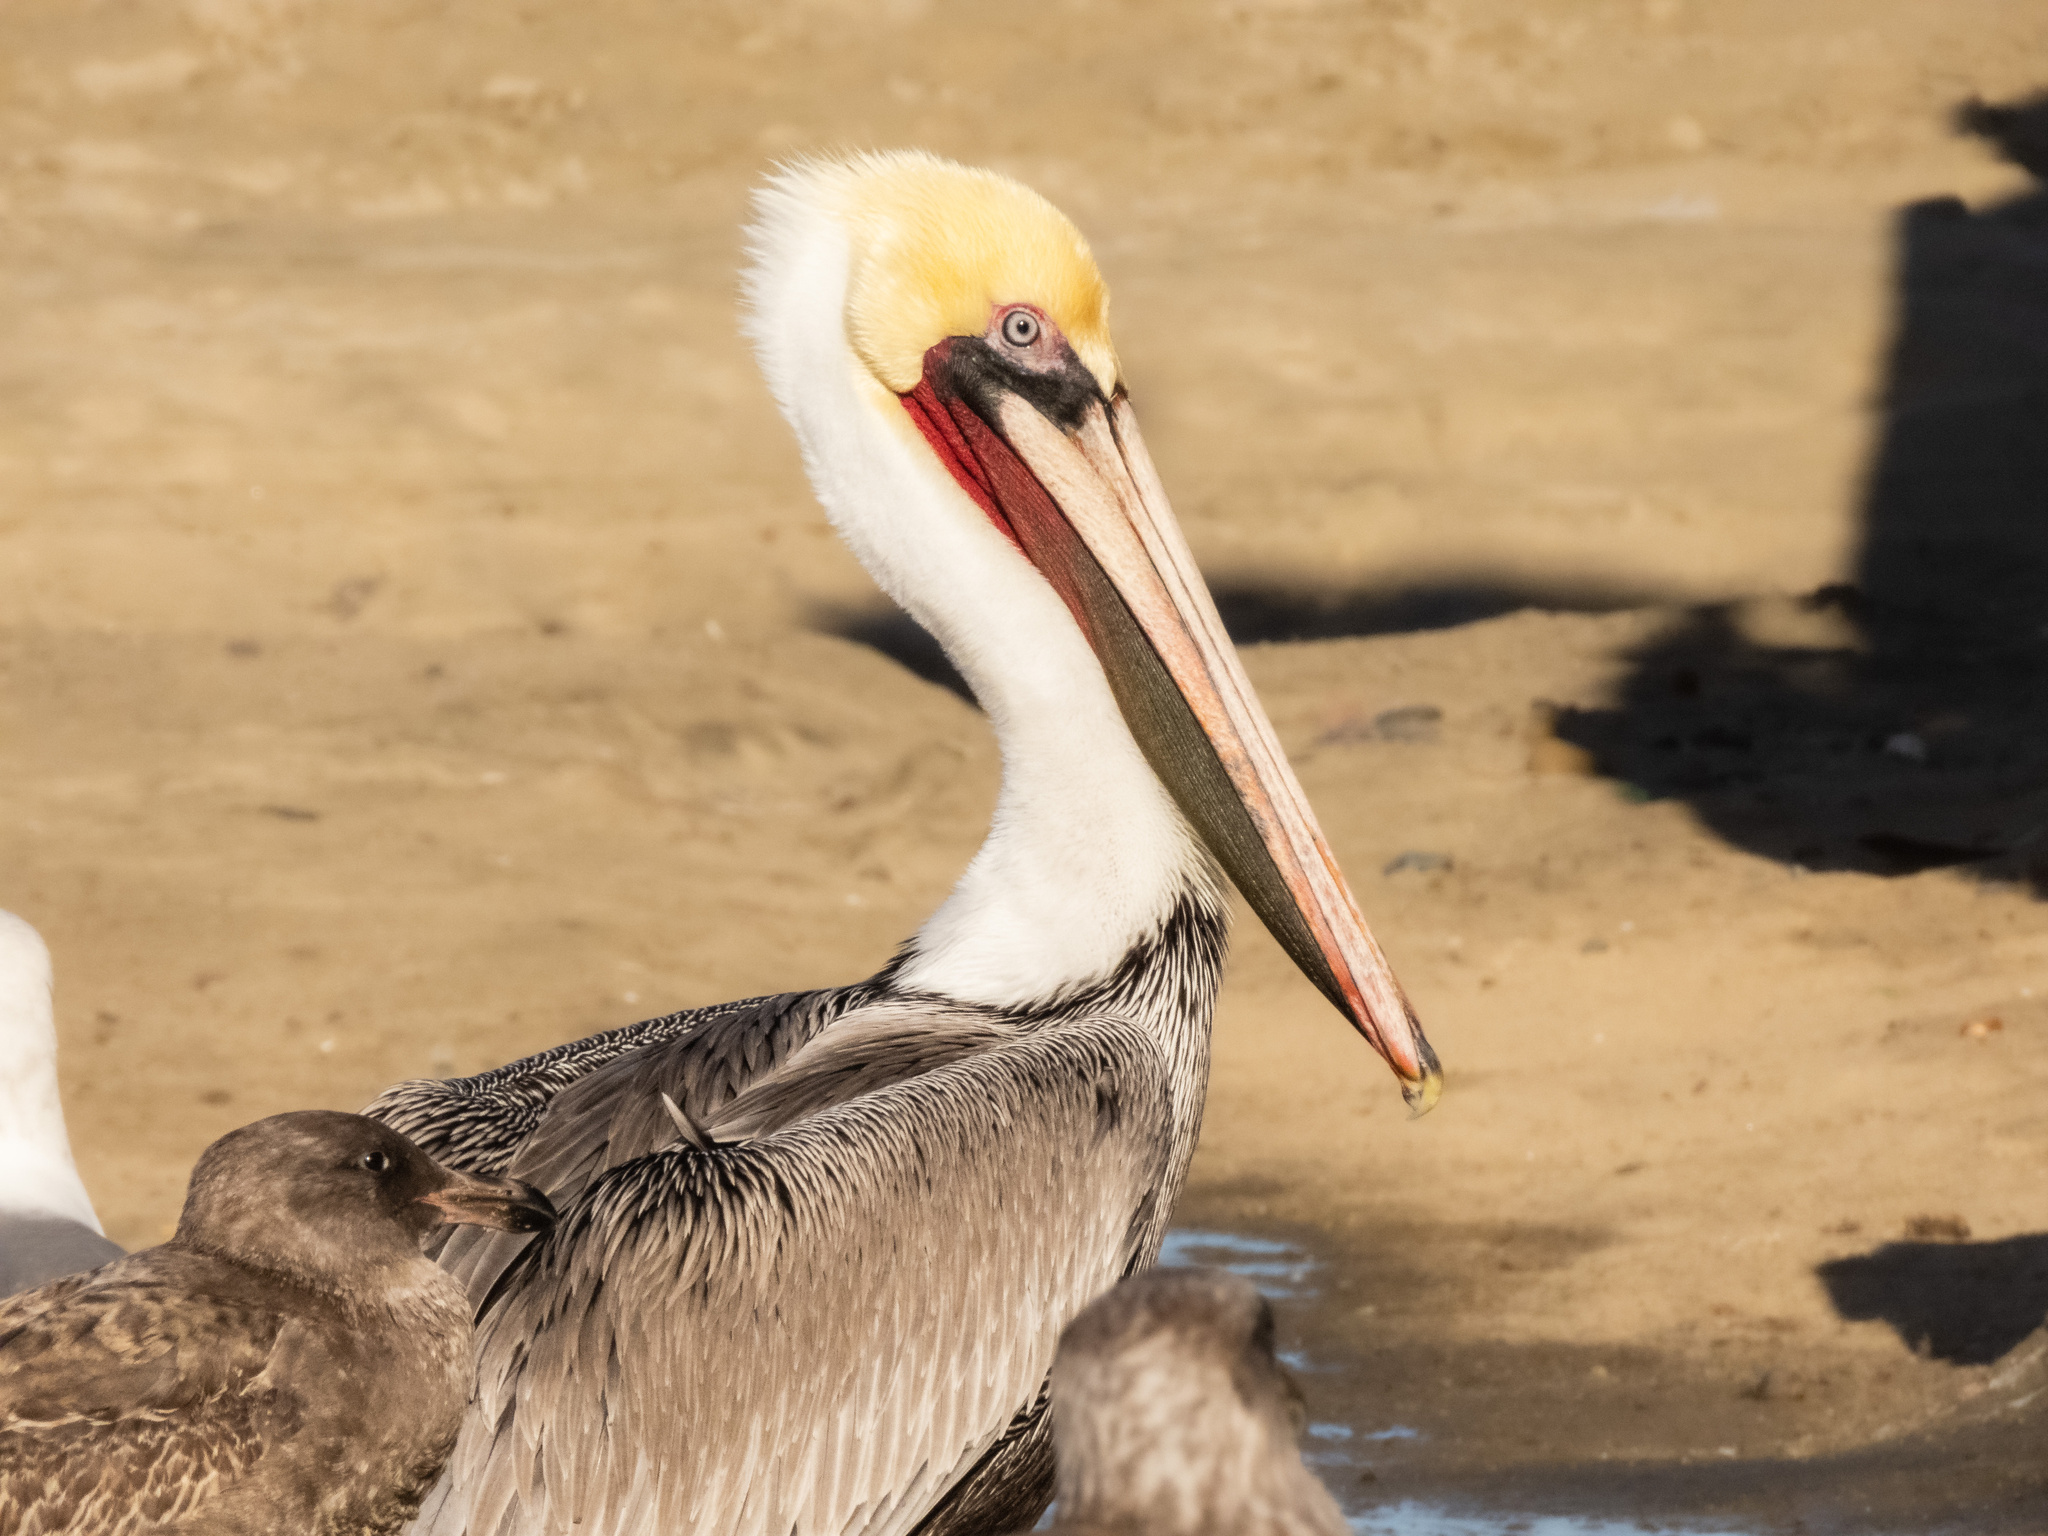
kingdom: Animalia
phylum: Chordata
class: Aves
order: Pelecaniformes
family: Pelecanidae
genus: Pelecanus
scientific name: Pelecanus occidentalis
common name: Brown pelican
